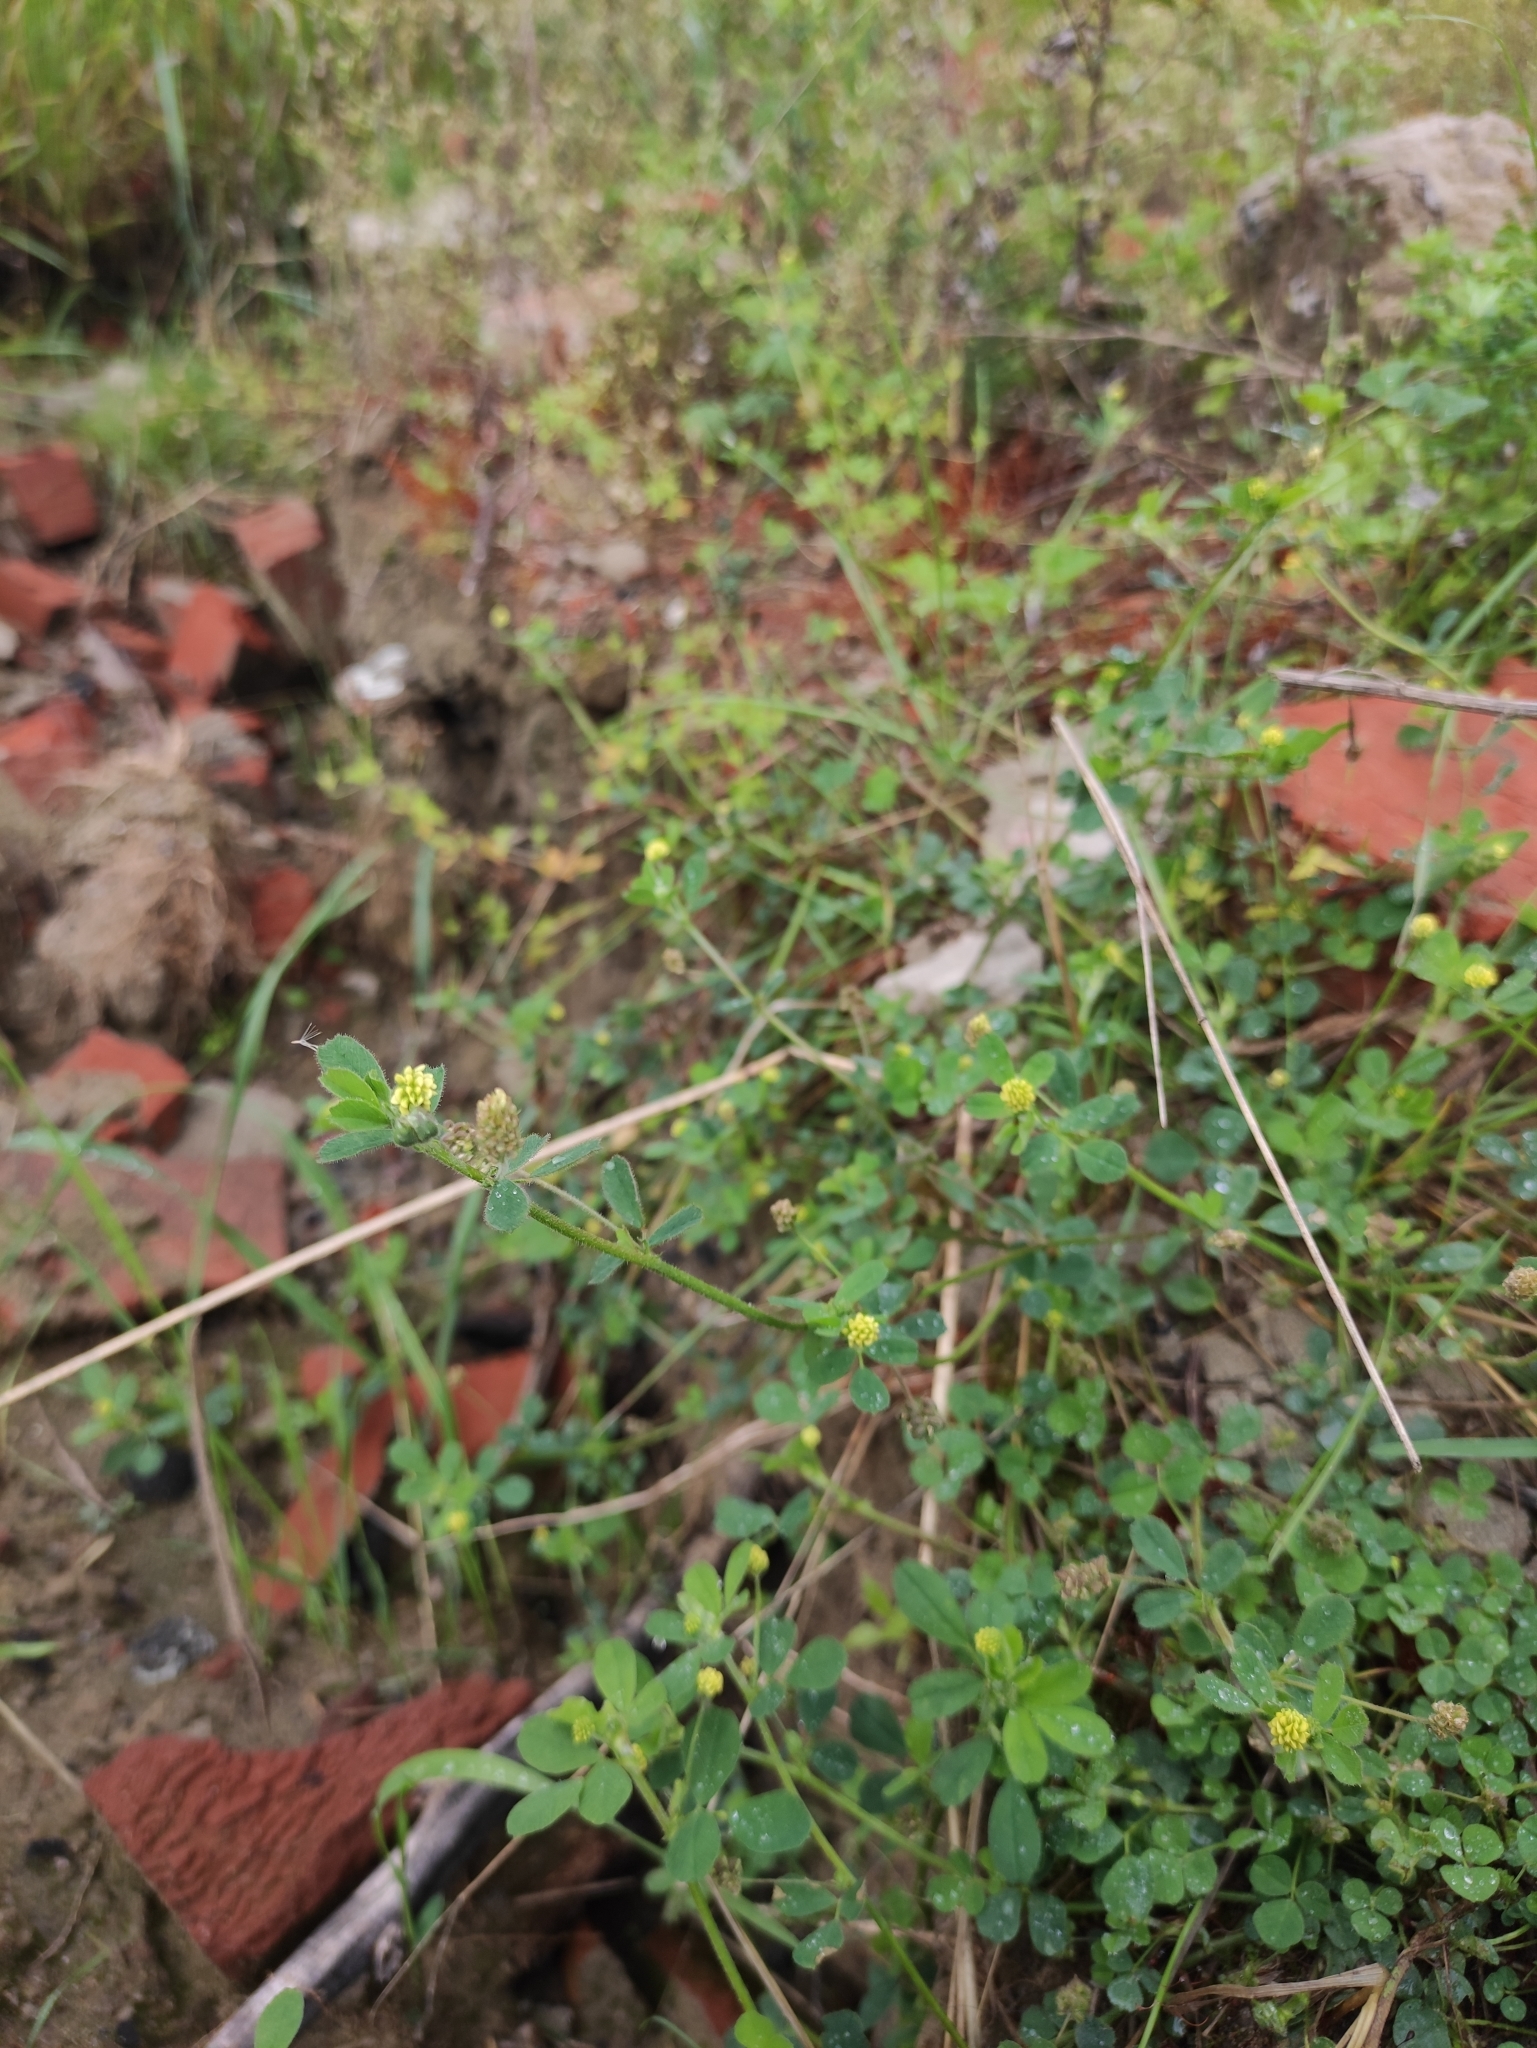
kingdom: Plantae
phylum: Tracheophyta
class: Magnoliopsida
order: Fabales
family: Fabaceae
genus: Medicago
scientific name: Medicago lupulina
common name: Black medick
